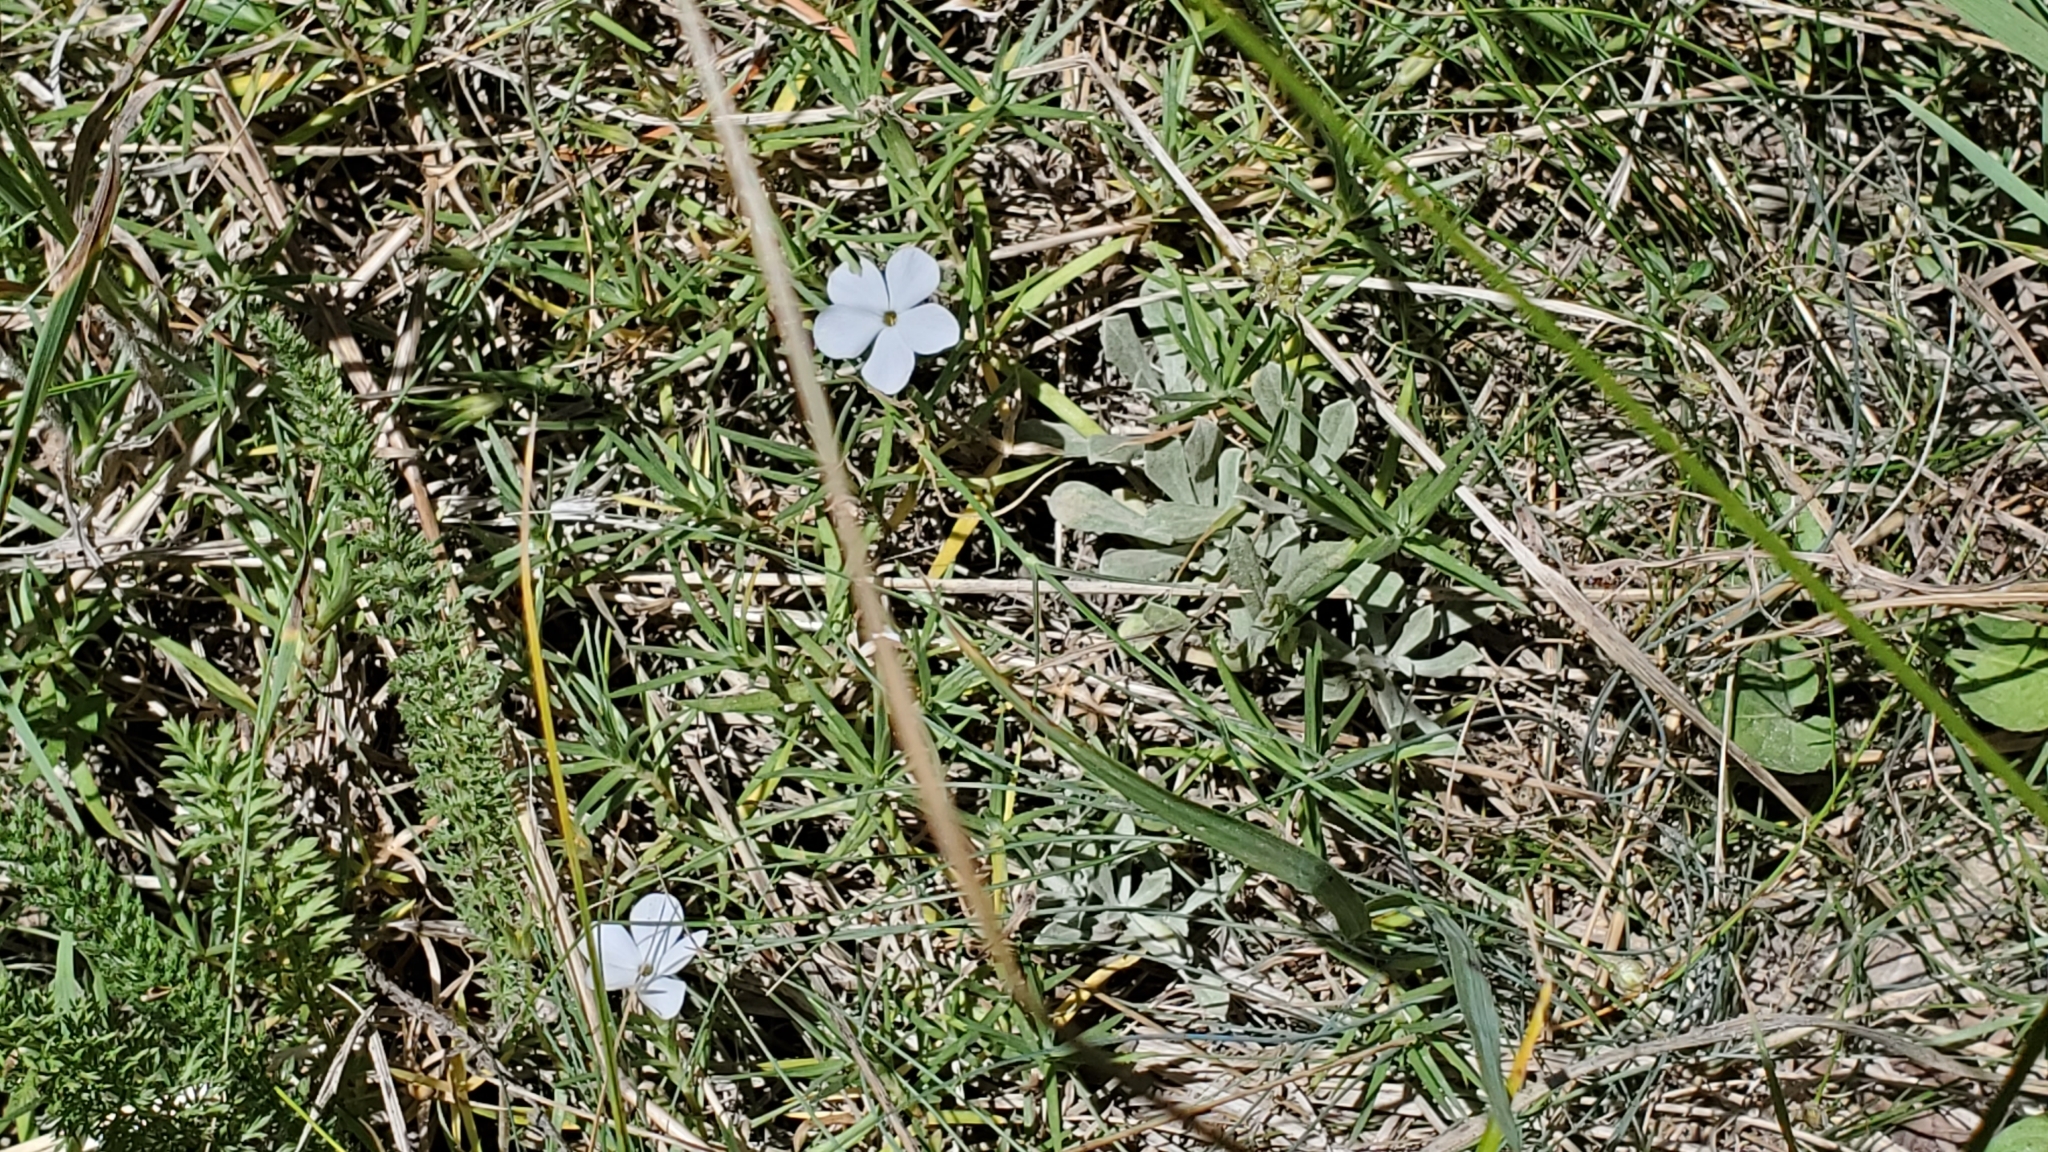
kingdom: Plantae
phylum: Tracheophyta
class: Magnoliopsida
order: Ericales
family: Polemoniaceae
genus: Phlox
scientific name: Phlox multiflora
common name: Rocky mountain phlox
